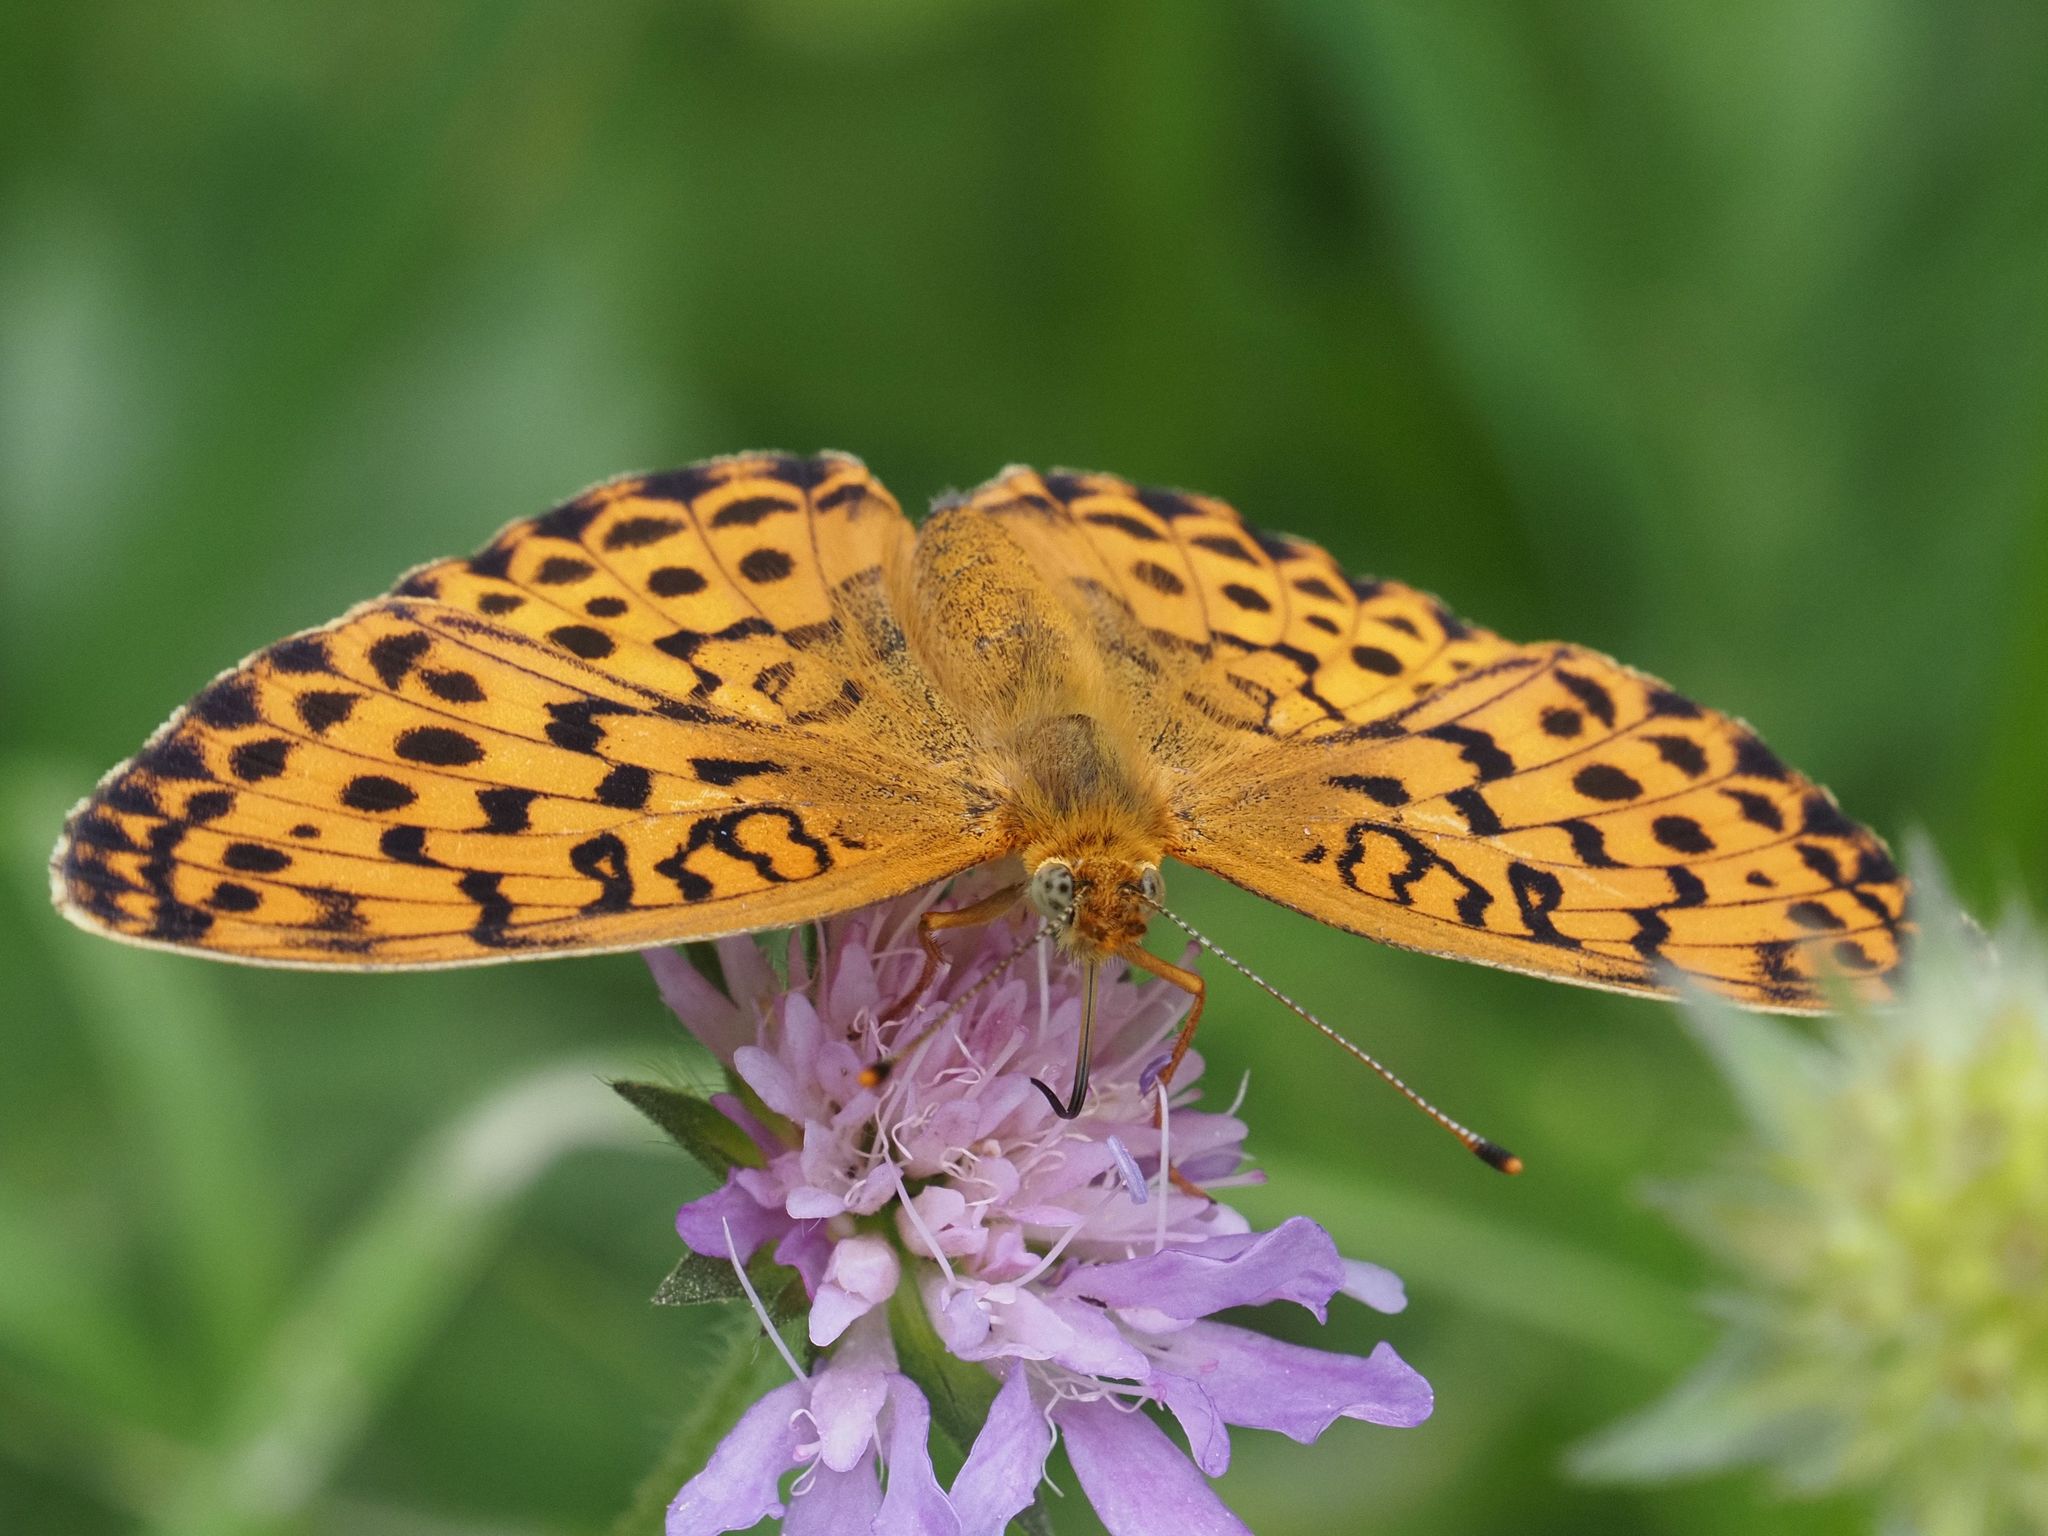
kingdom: Animalia
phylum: Arthropoda
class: Insecta
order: Lepidoptera
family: Nymphalidae
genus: Brenthis
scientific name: Brenthis daphne
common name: Marbled fritillary
